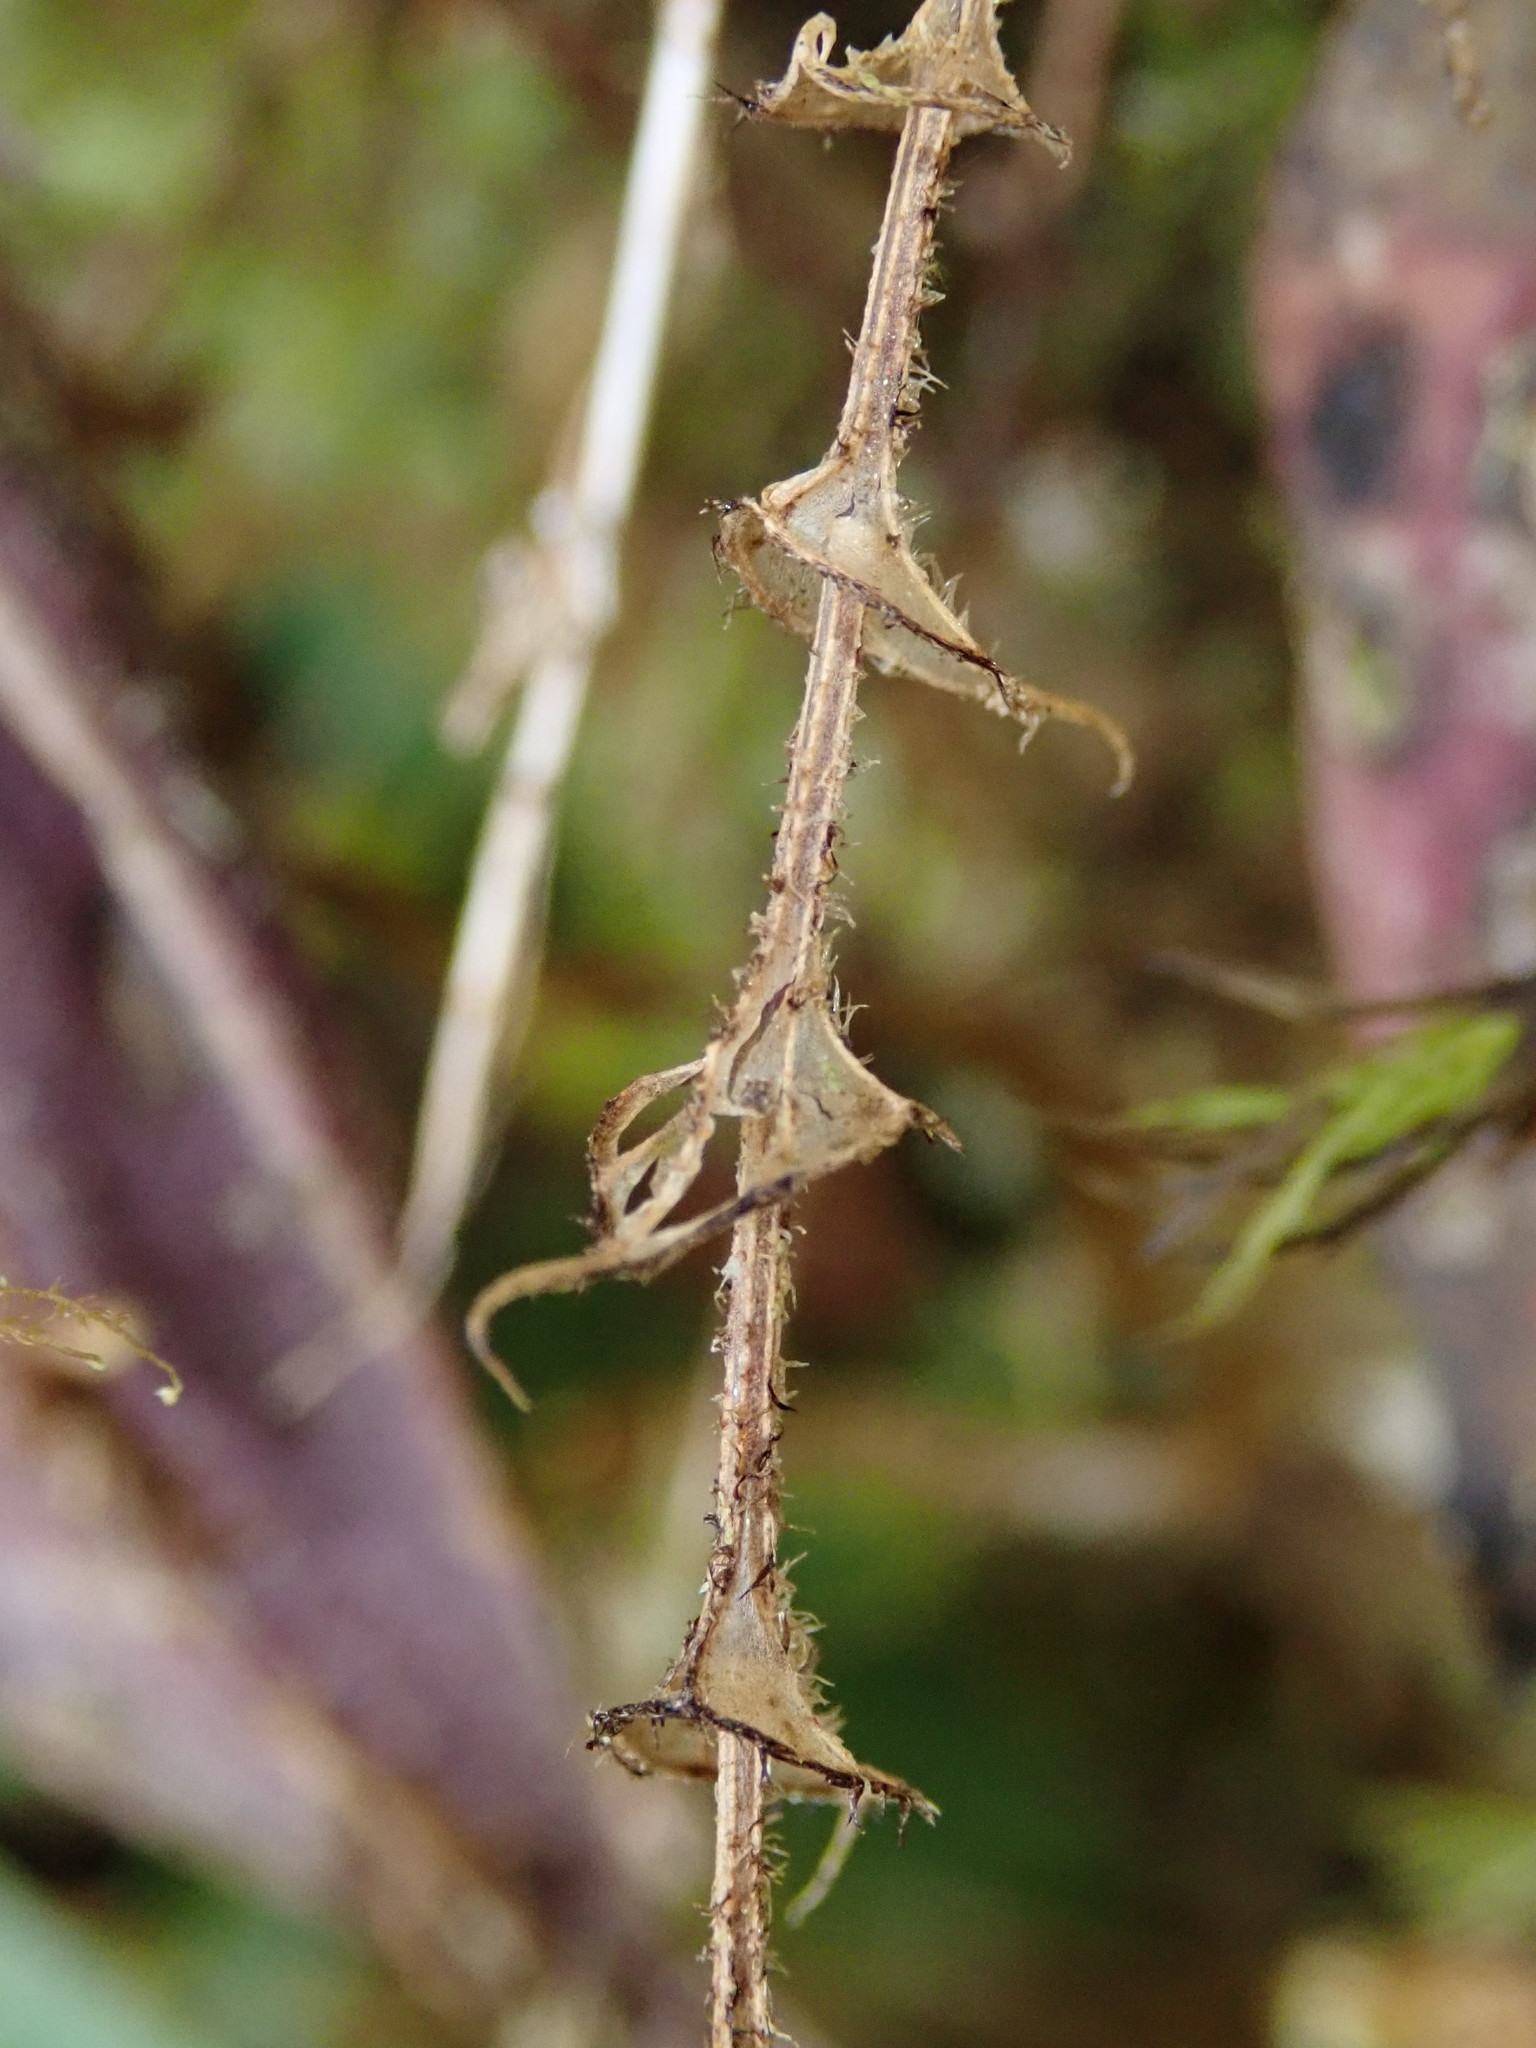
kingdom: Plantae
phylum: Tracheophyta
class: Liliopsida
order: Asparagales
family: Orchidaceae
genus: Lepanthes
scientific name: Lepanthes transparens
